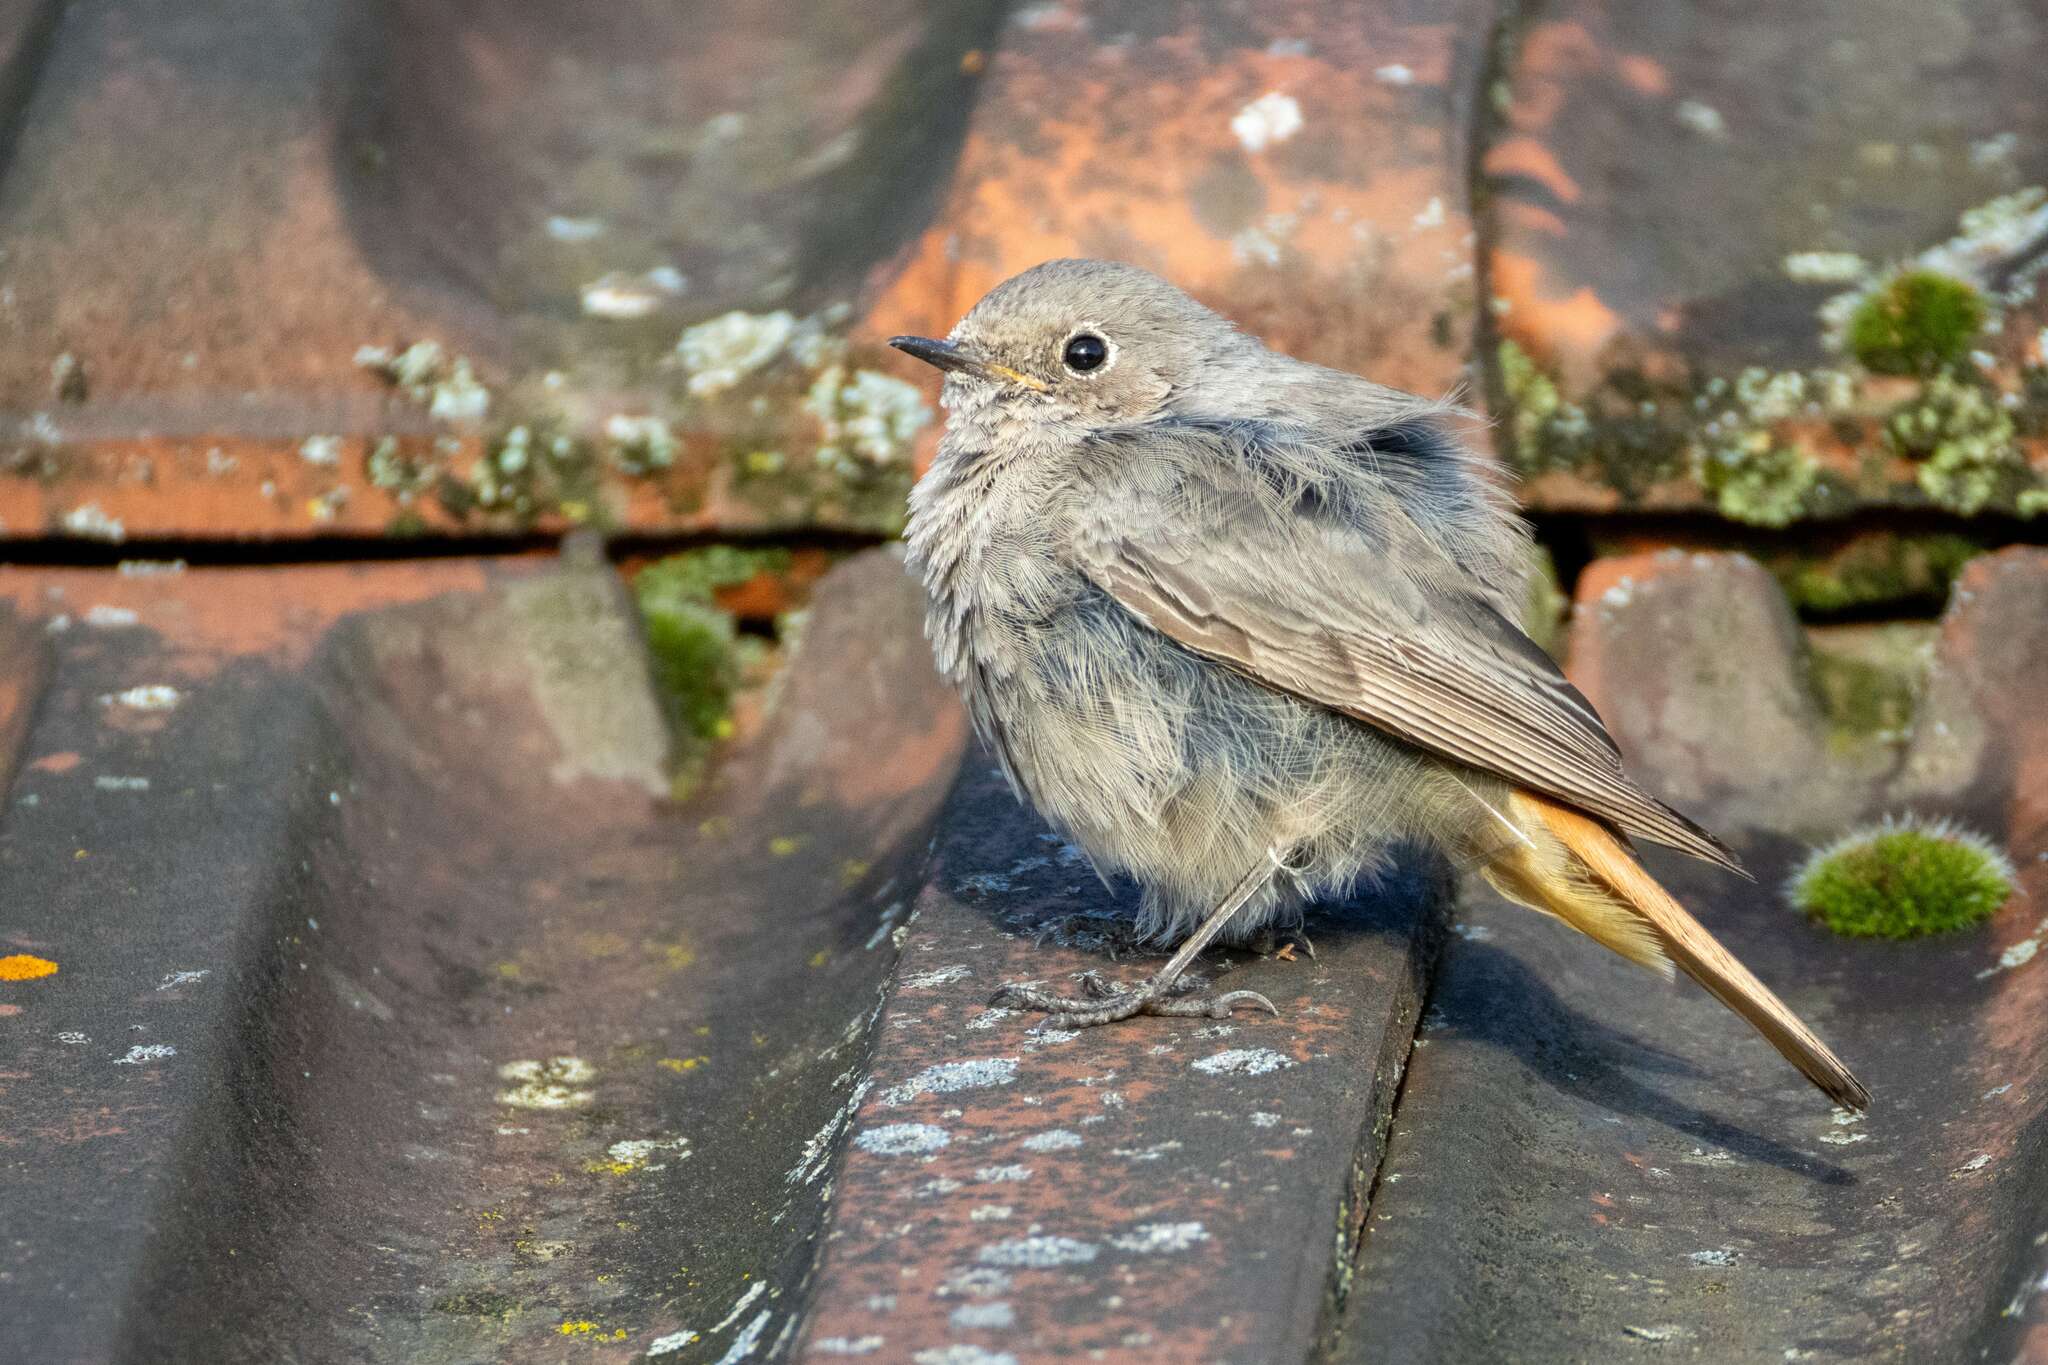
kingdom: Animalia
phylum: Chordata
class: Aves
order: Passeriformes
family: Muscicapidae
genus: Phoenicurus
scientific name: Phoenicurus ochruros
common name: Black redstart
